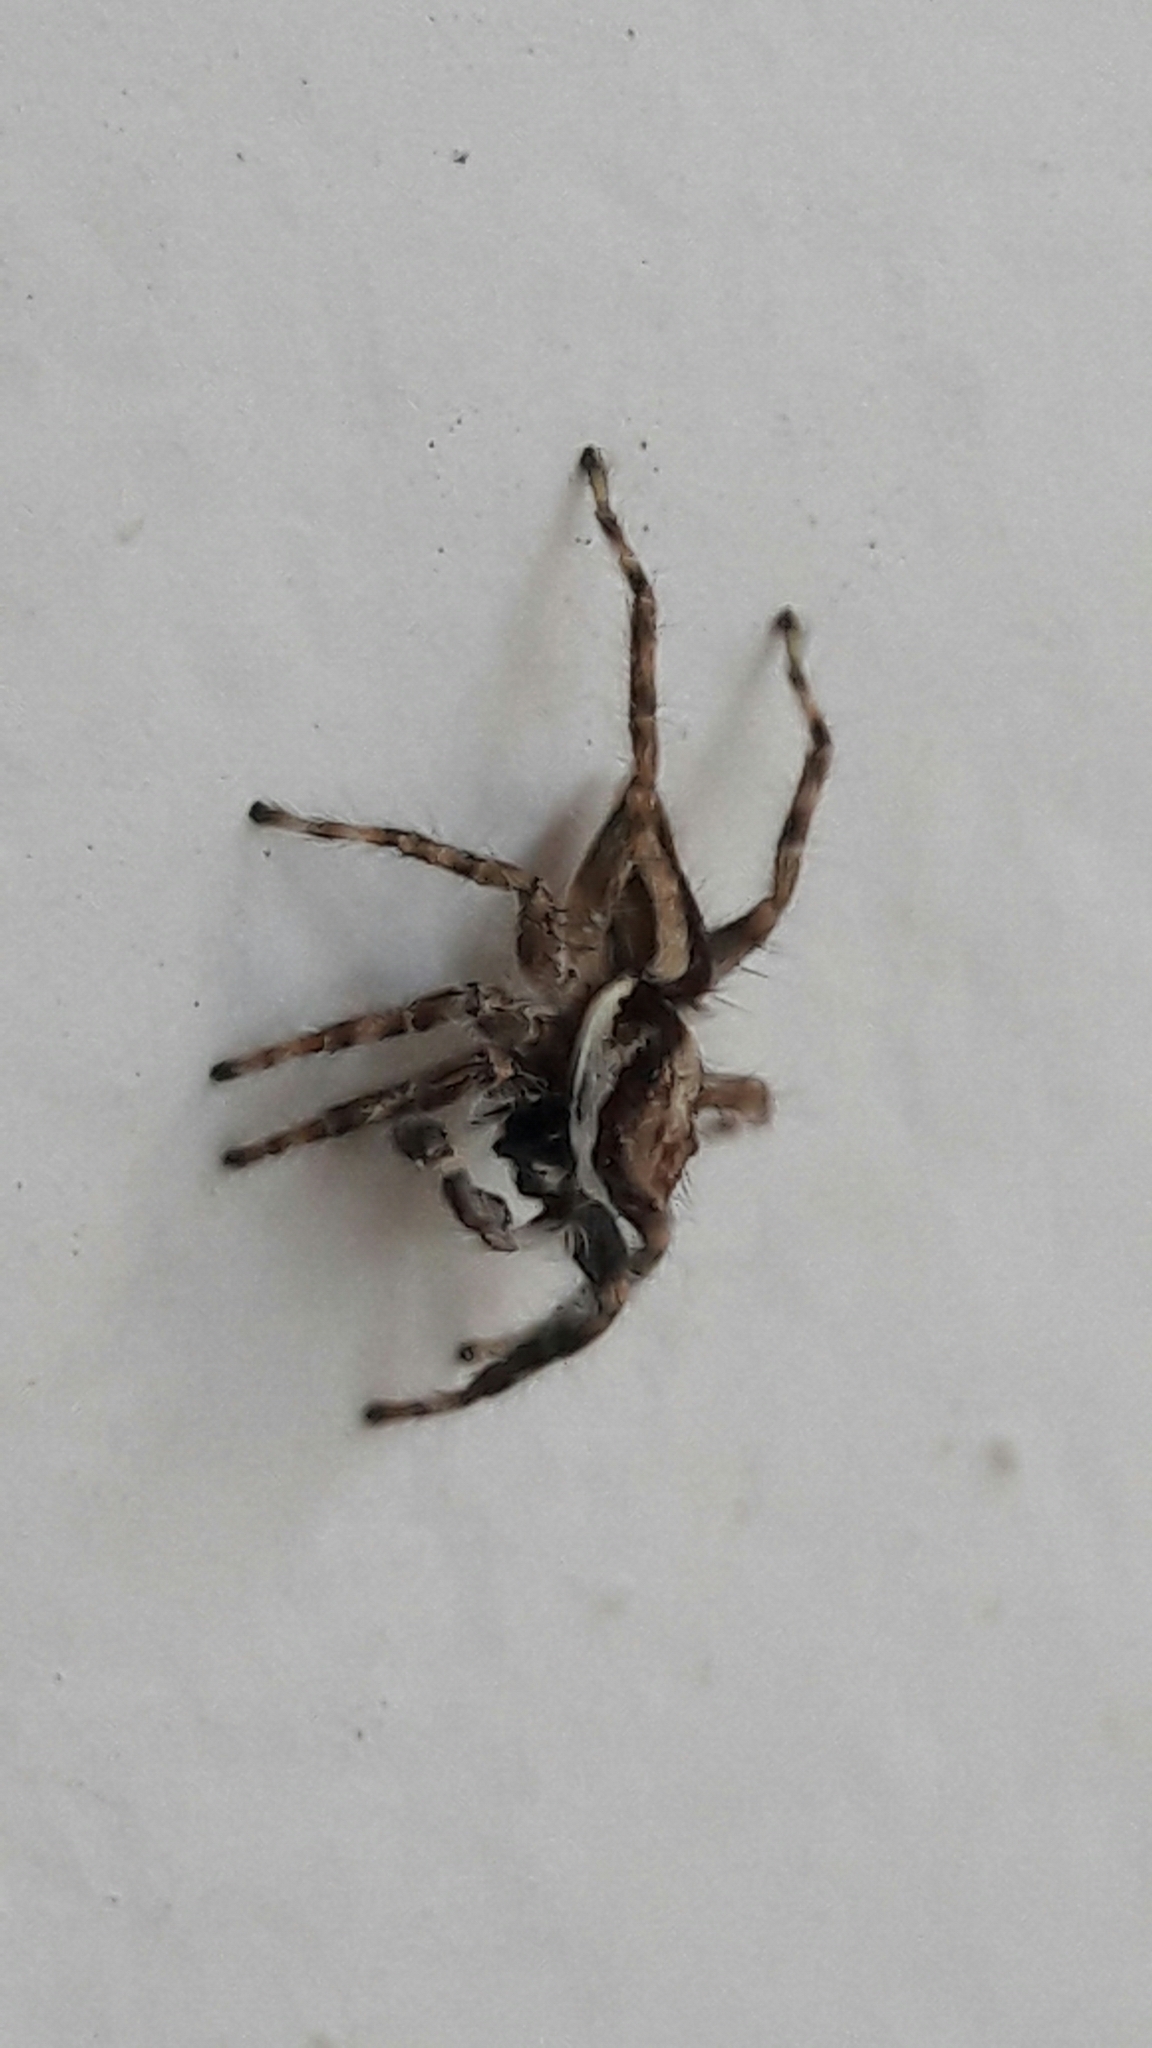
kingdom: Animalia
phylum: Arthropoda
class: Arachnida
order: Araneae
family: Salticidae
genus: Menemerus
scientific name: Menemerus bivittatus
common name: Gray wall jumper
